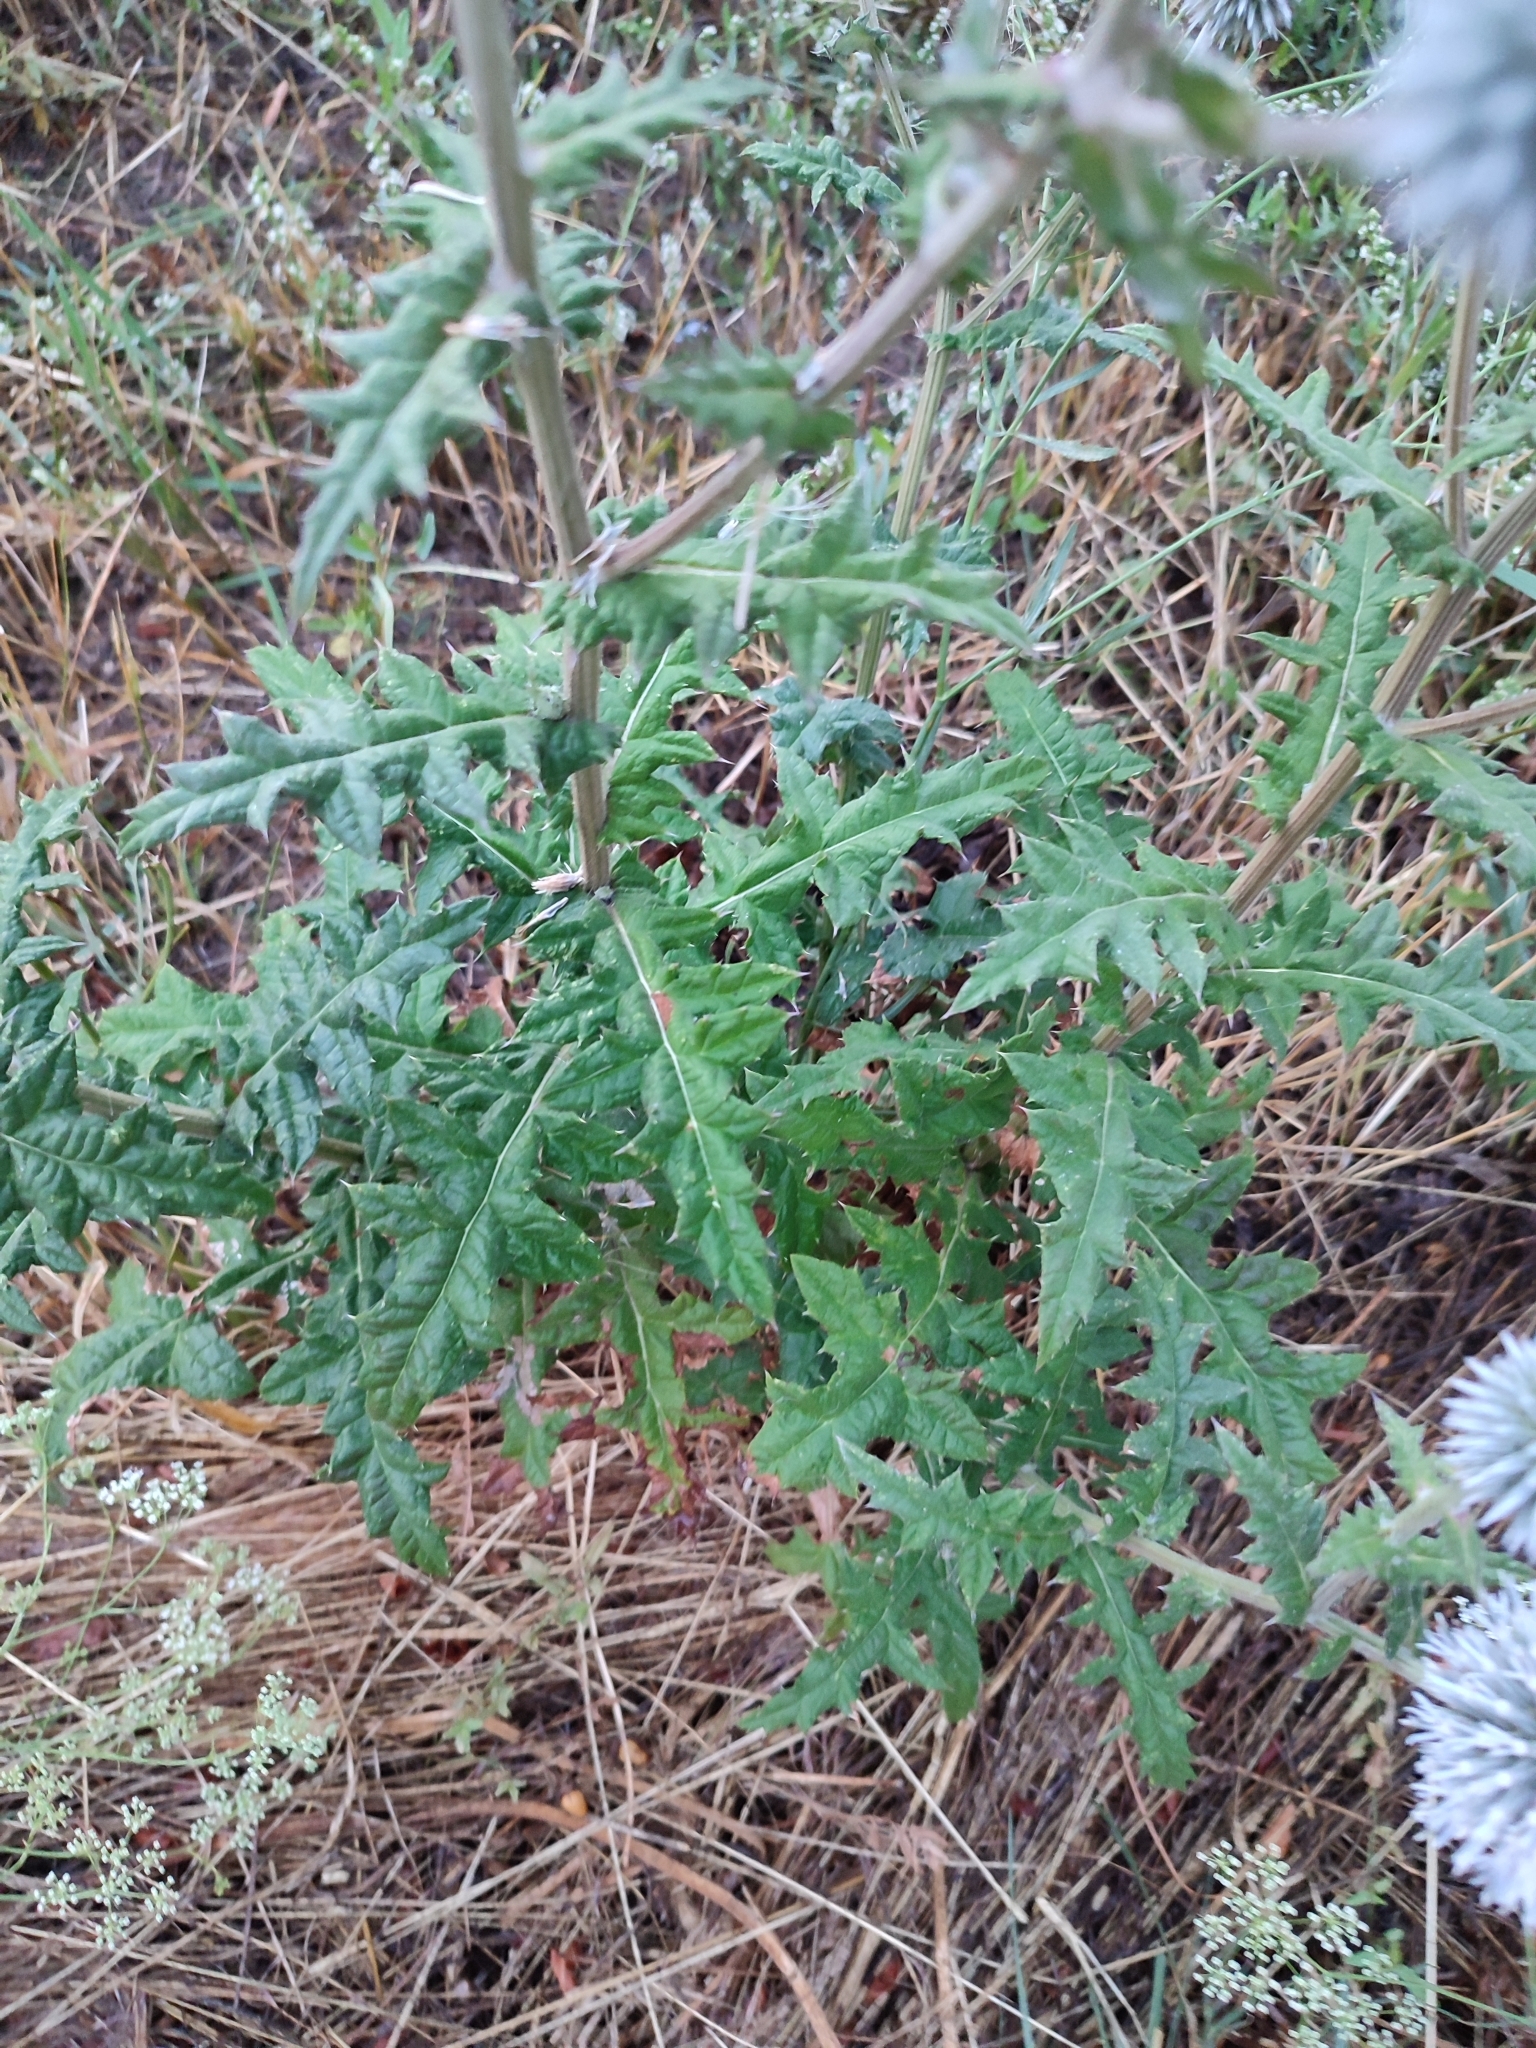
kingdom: Plantae
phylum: Tracheophyta
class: Magnoliopsida
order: Asterales
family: Asteraceae
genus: Echinops
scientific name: Echinops sphaerocephalus
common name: Glandular globe-thistle
